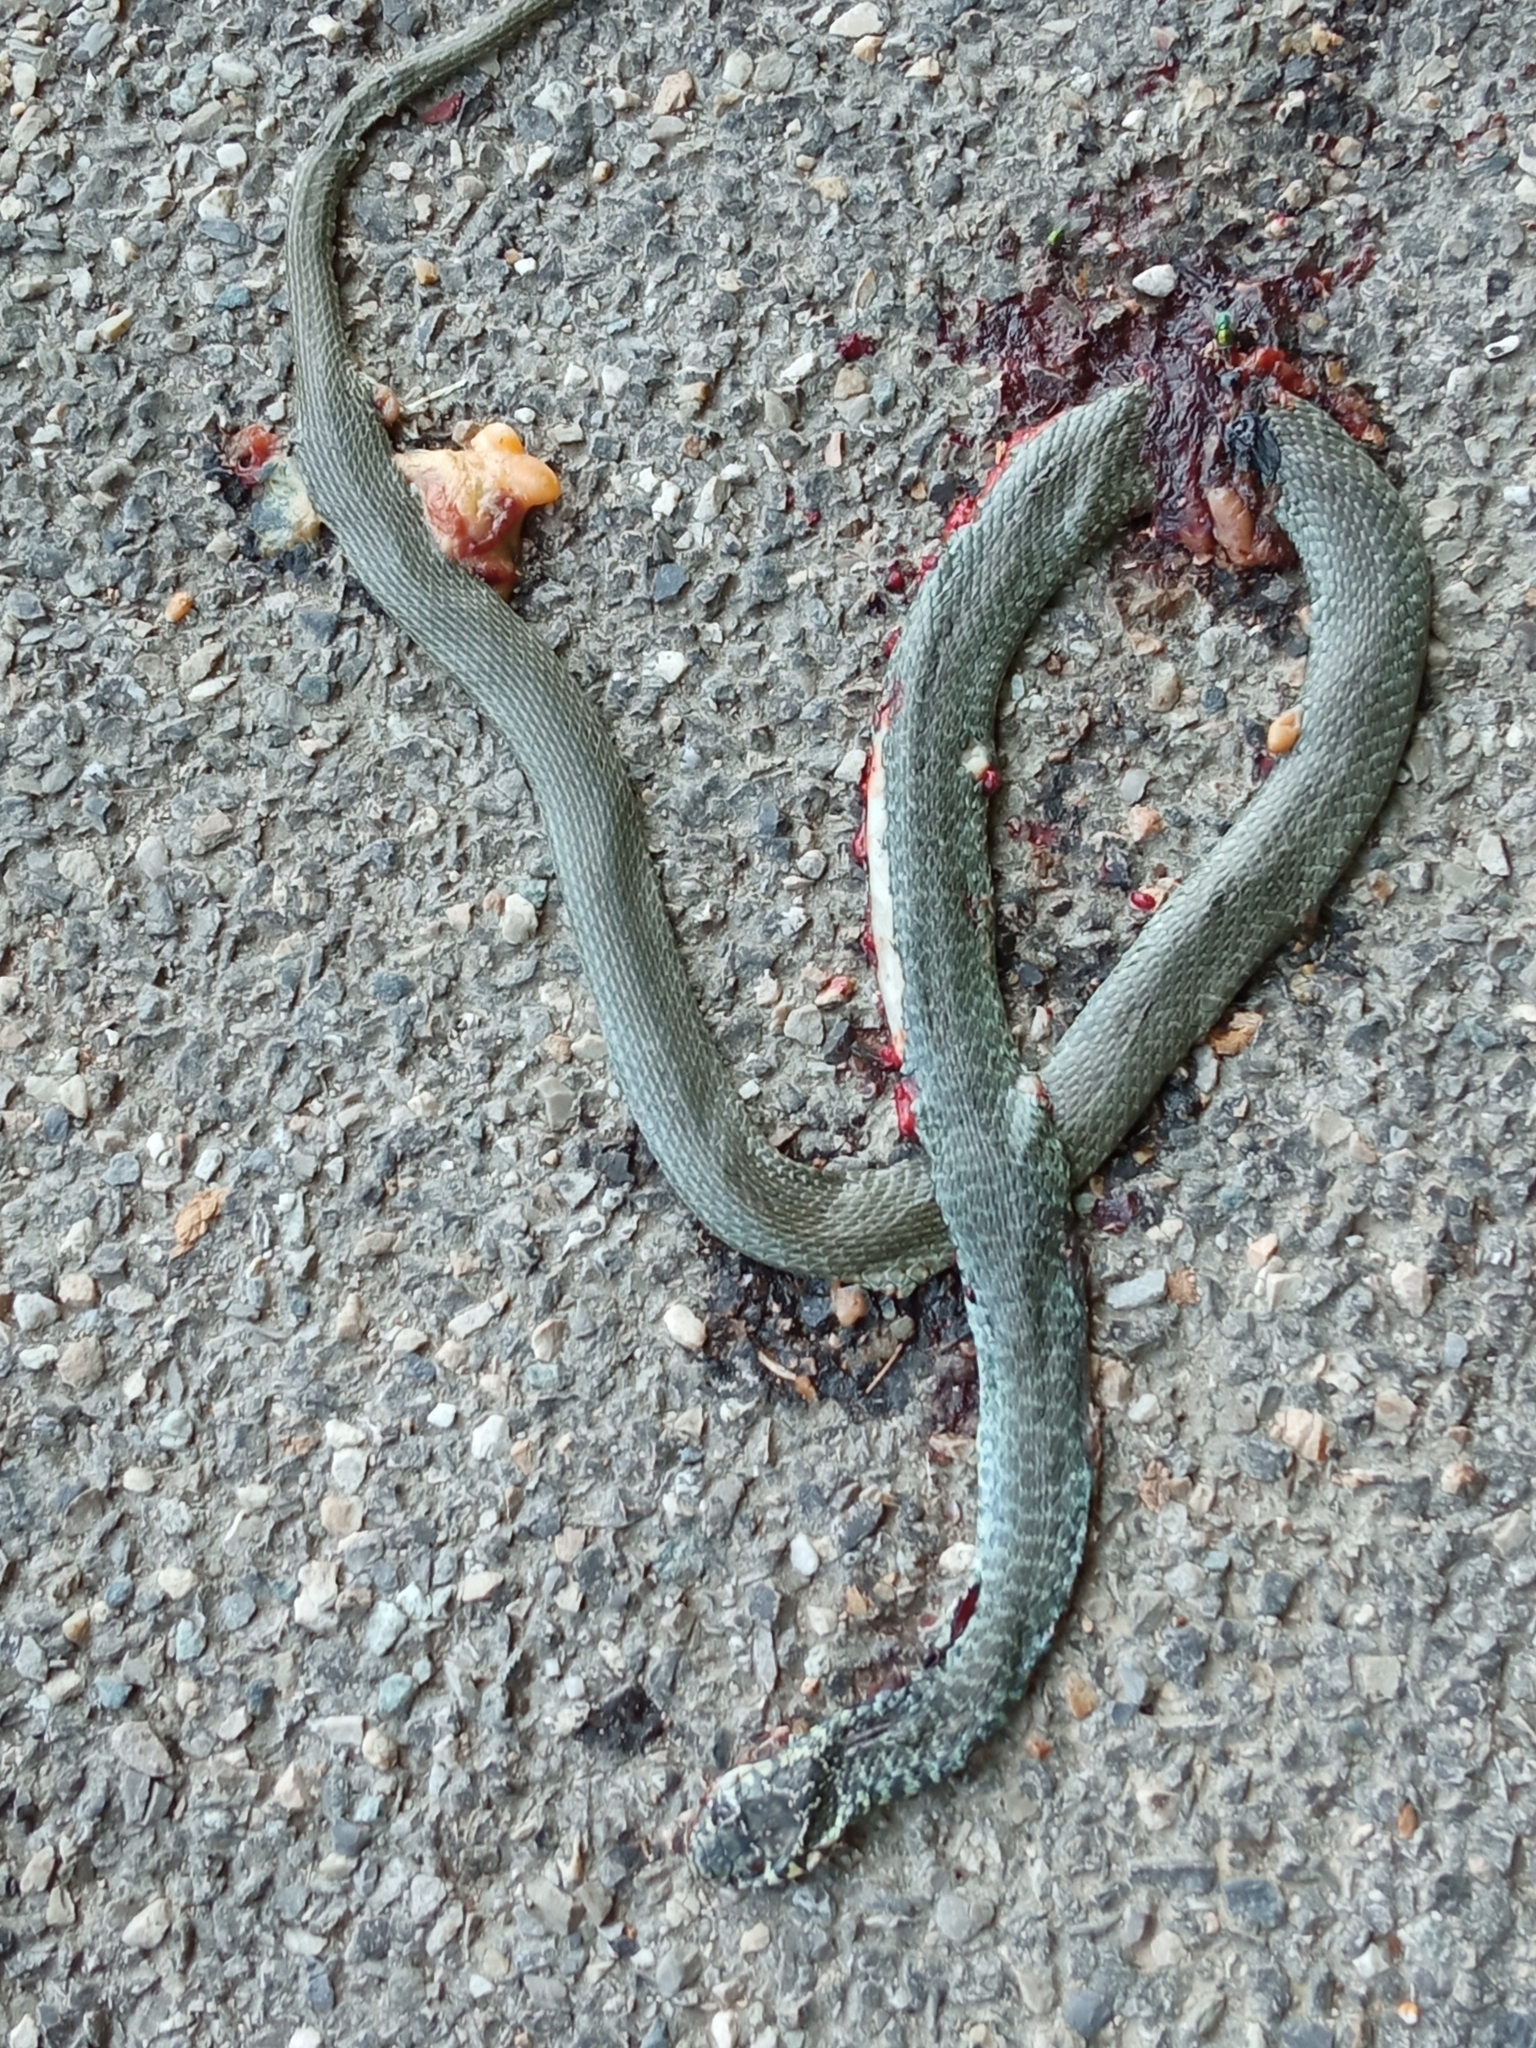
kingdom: Animalia
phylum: Chordata
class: Squamata
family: Colubridae
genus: Hierophis
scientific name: Hierophis viridiflavus
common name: Green whip snake
